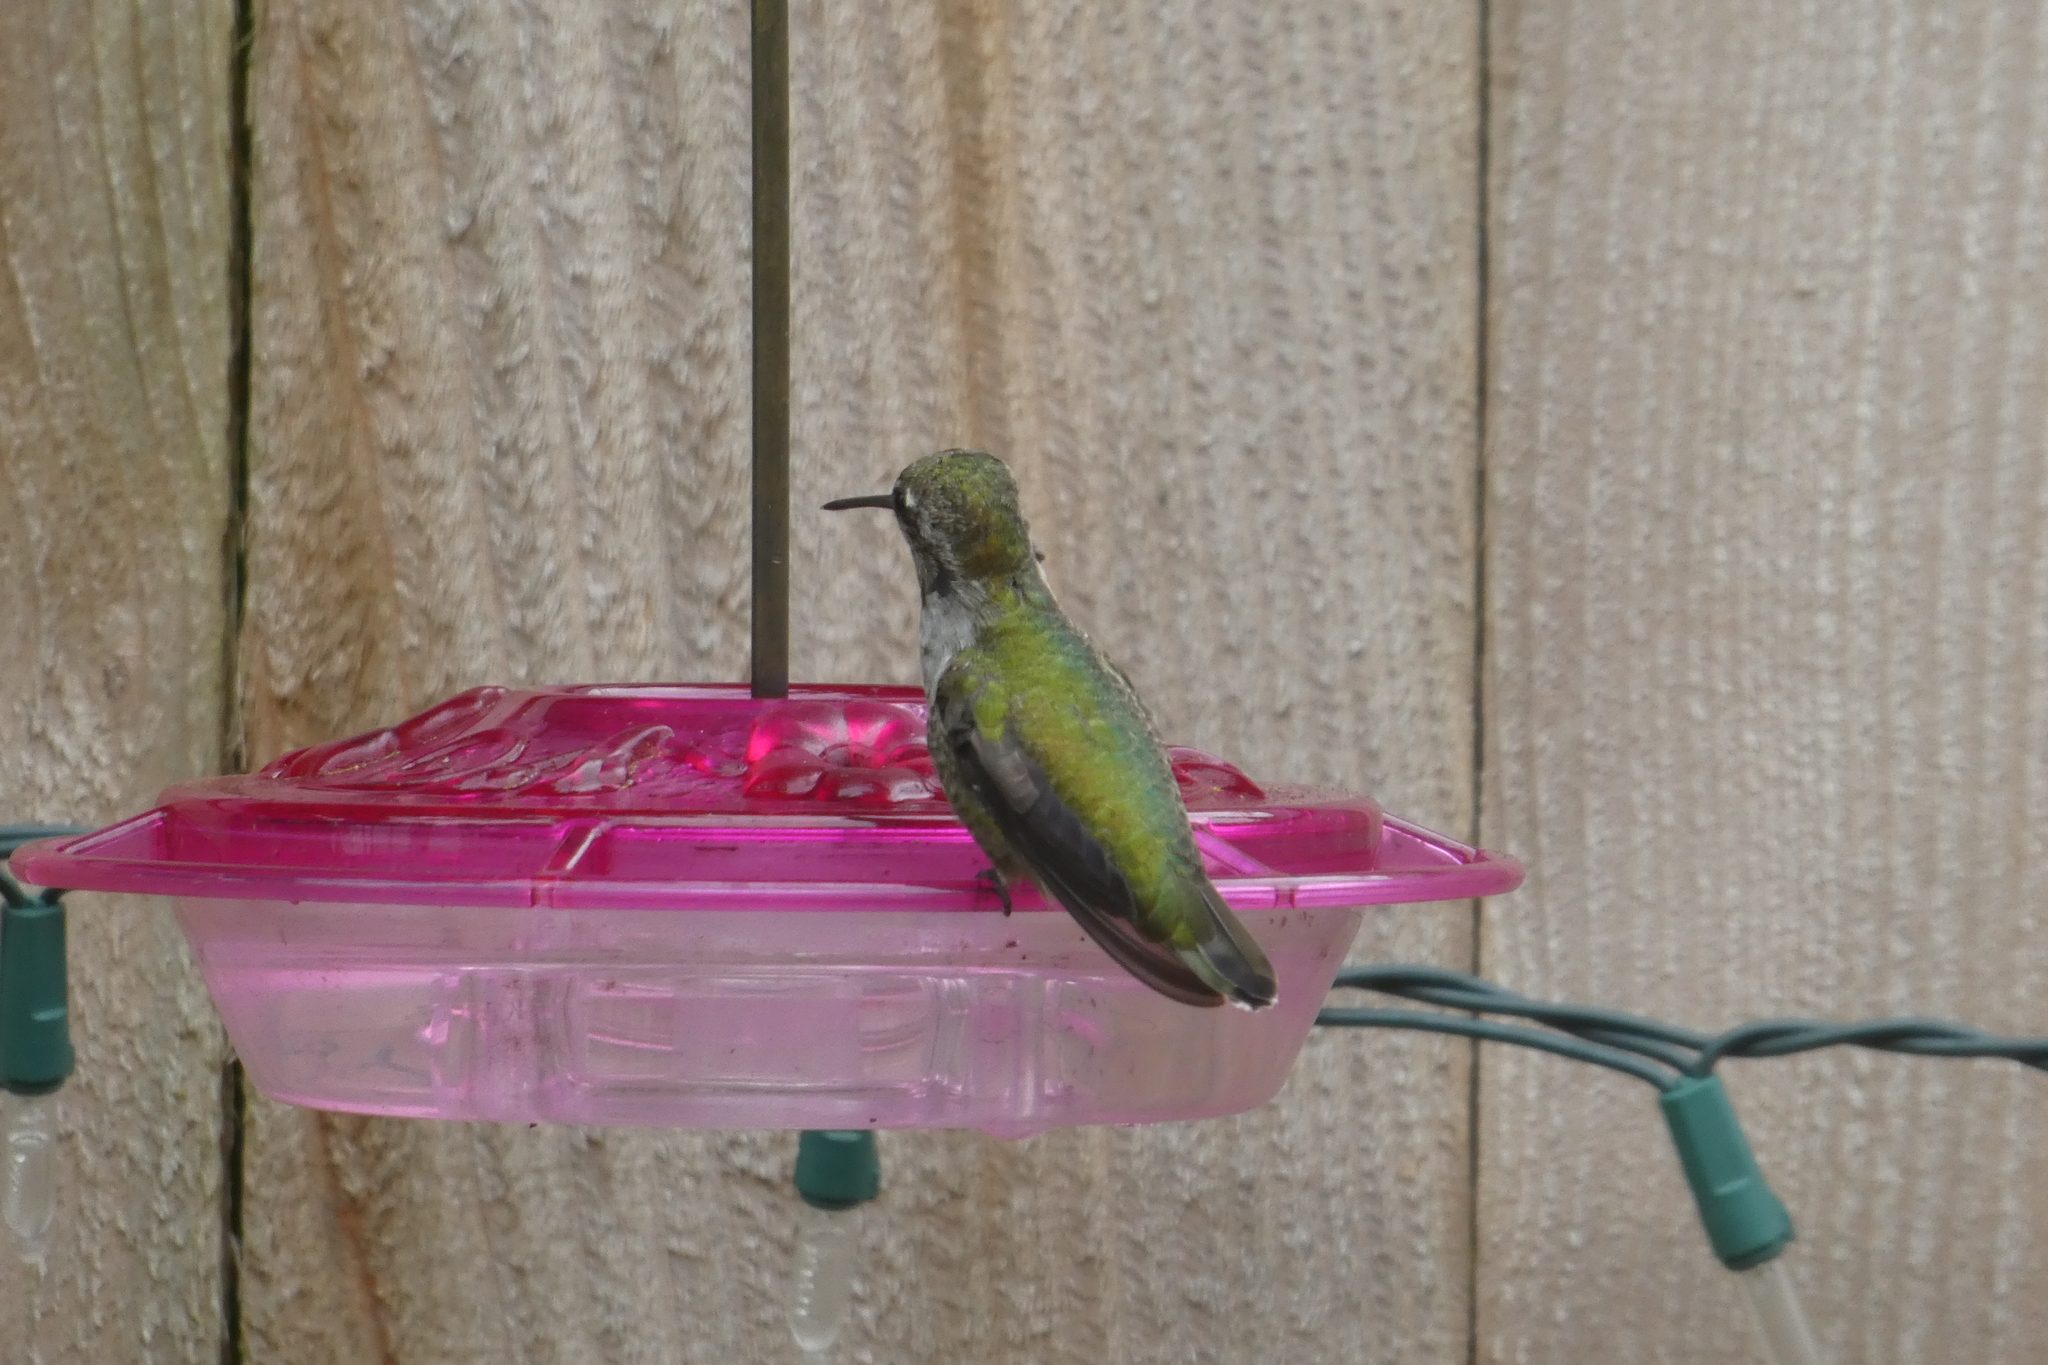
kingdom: Animalia
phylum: Chordata
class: Aves
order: Apodiformes
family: Trochilidae
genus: Calypte
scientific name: Calypte anna
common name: Anna's hummingbird
